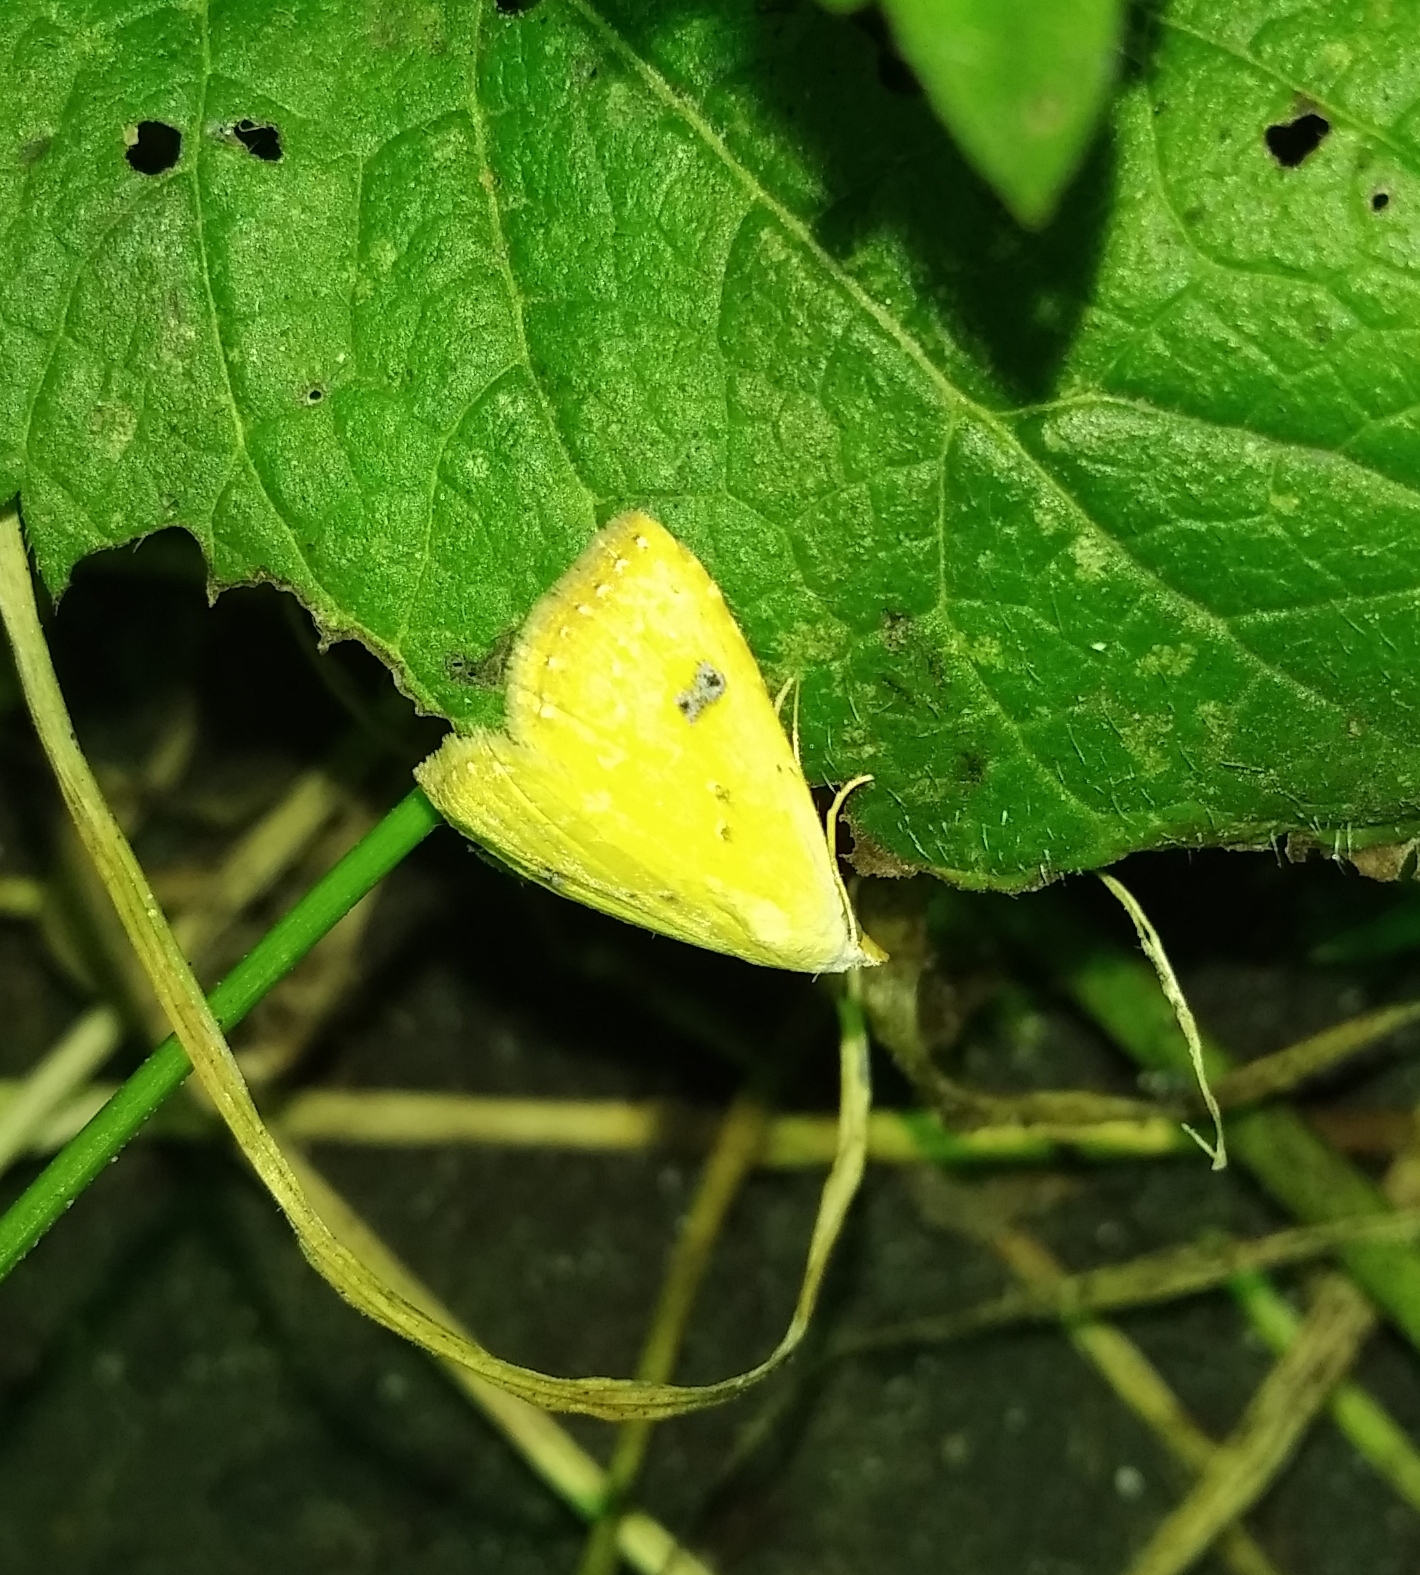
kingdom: Animalia
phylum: Arthropoda
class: Insecta
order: Lepidoptera
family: Erebidae
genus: Rivula
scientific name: Rivula sericealis
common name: Straw dot
